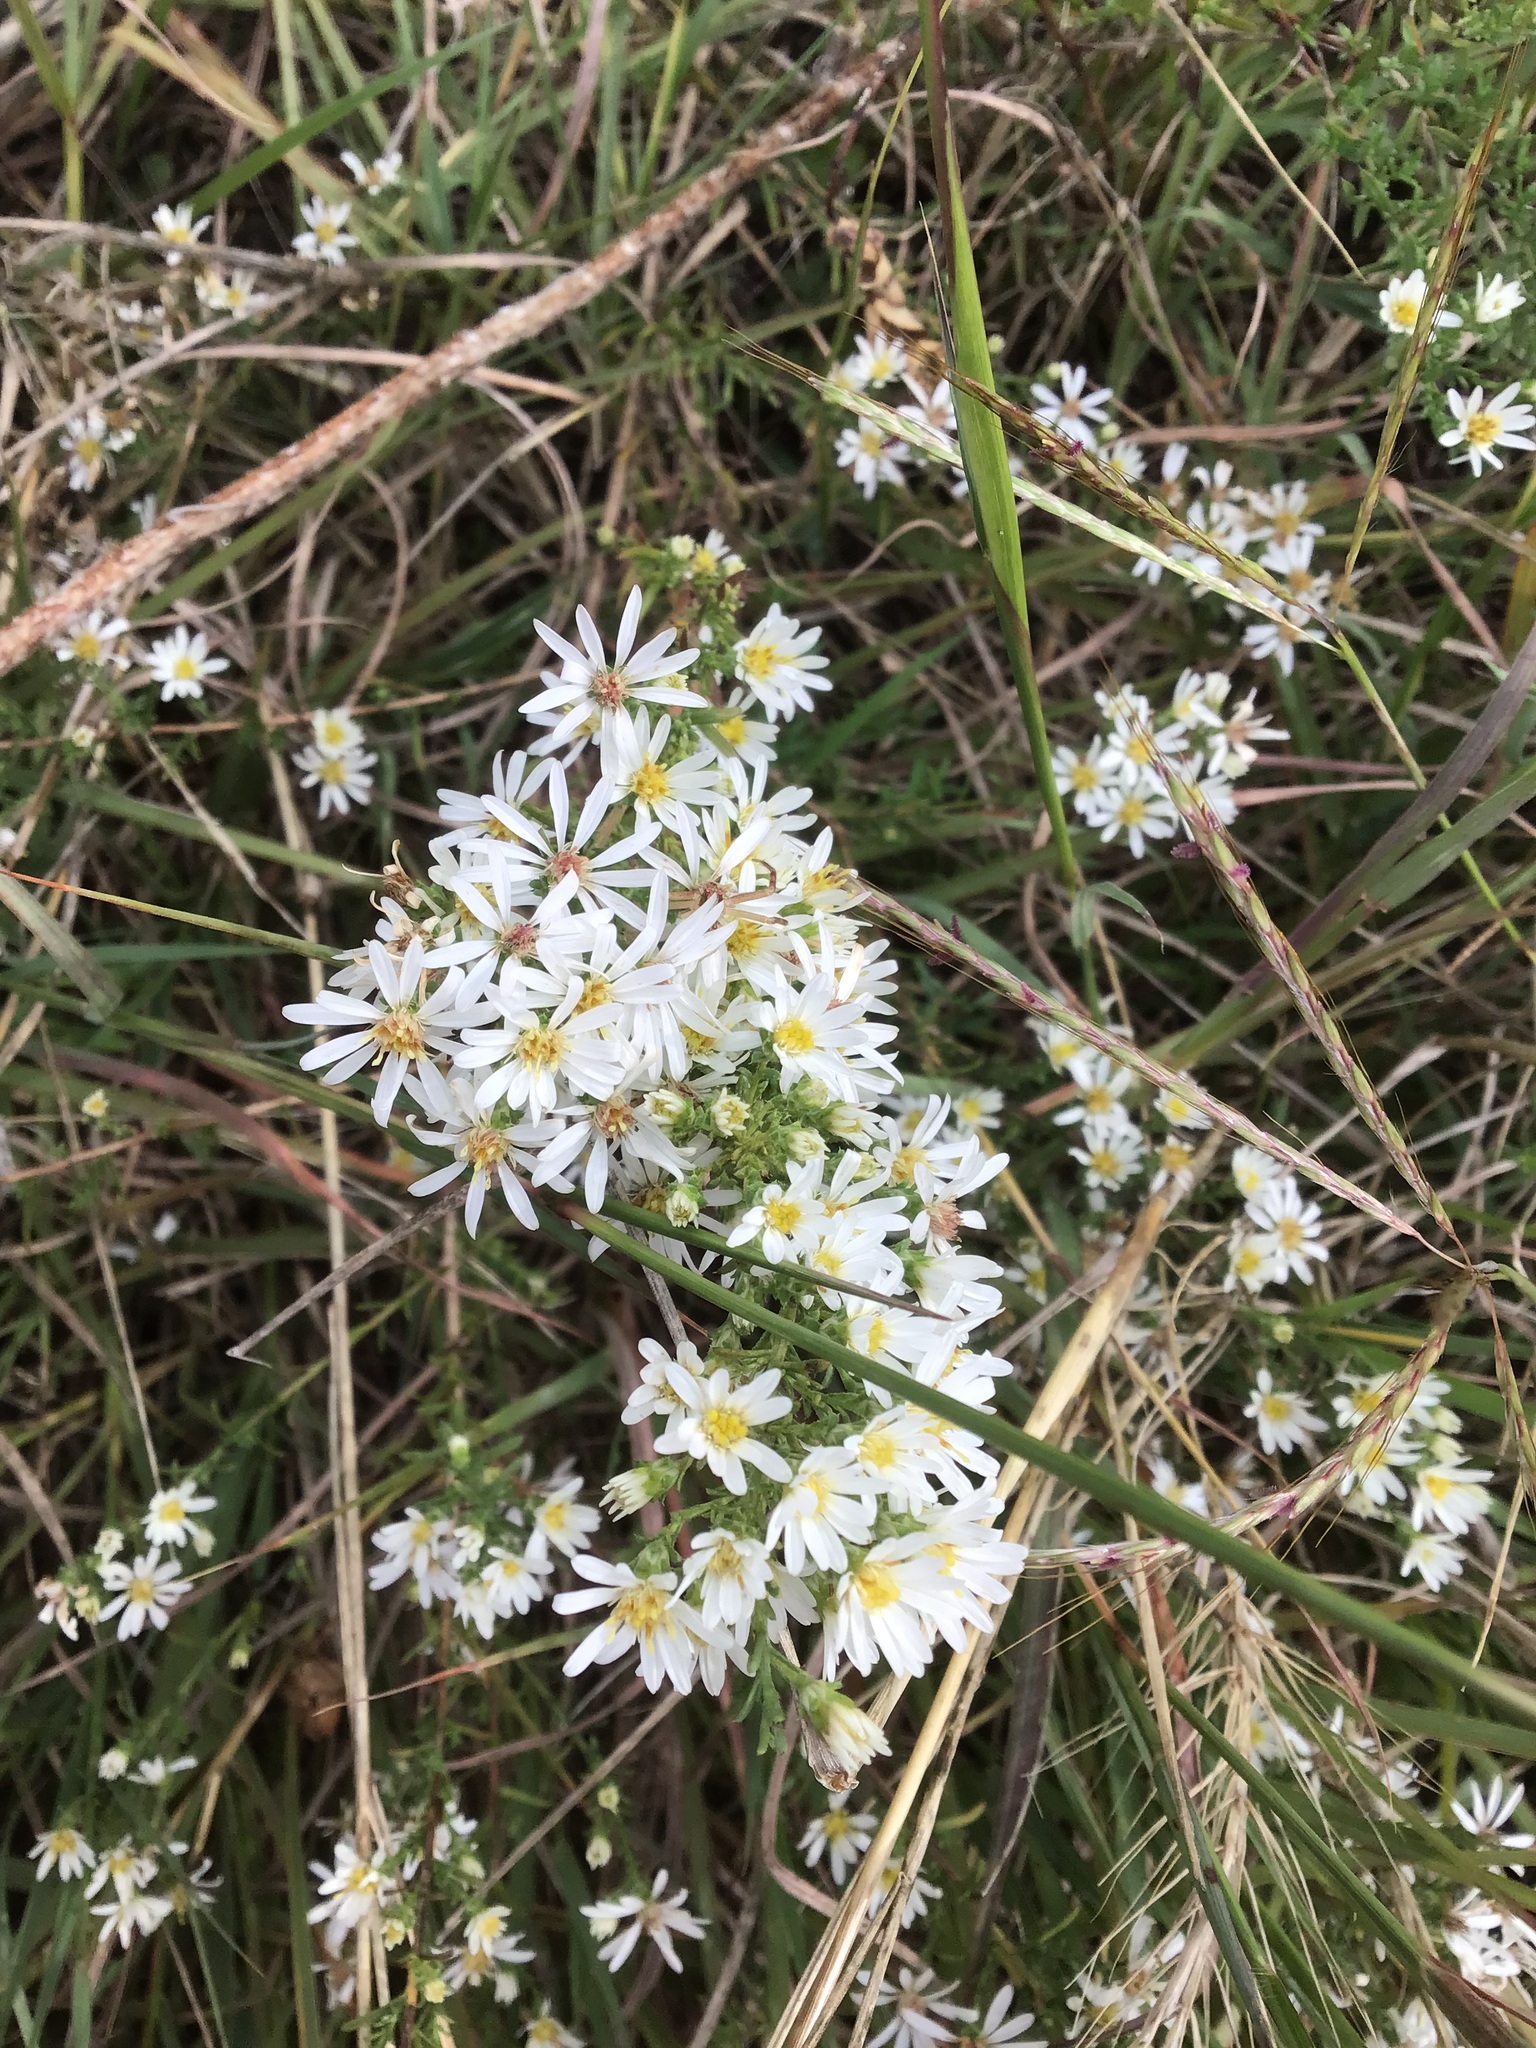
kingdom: Plantae
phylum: Tracheophyta
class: Magnoliopsida
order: Asterales
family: Asteraceae
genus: Symphyotrichum
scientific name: Symphyotrichum ericoides
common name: Heath aster
